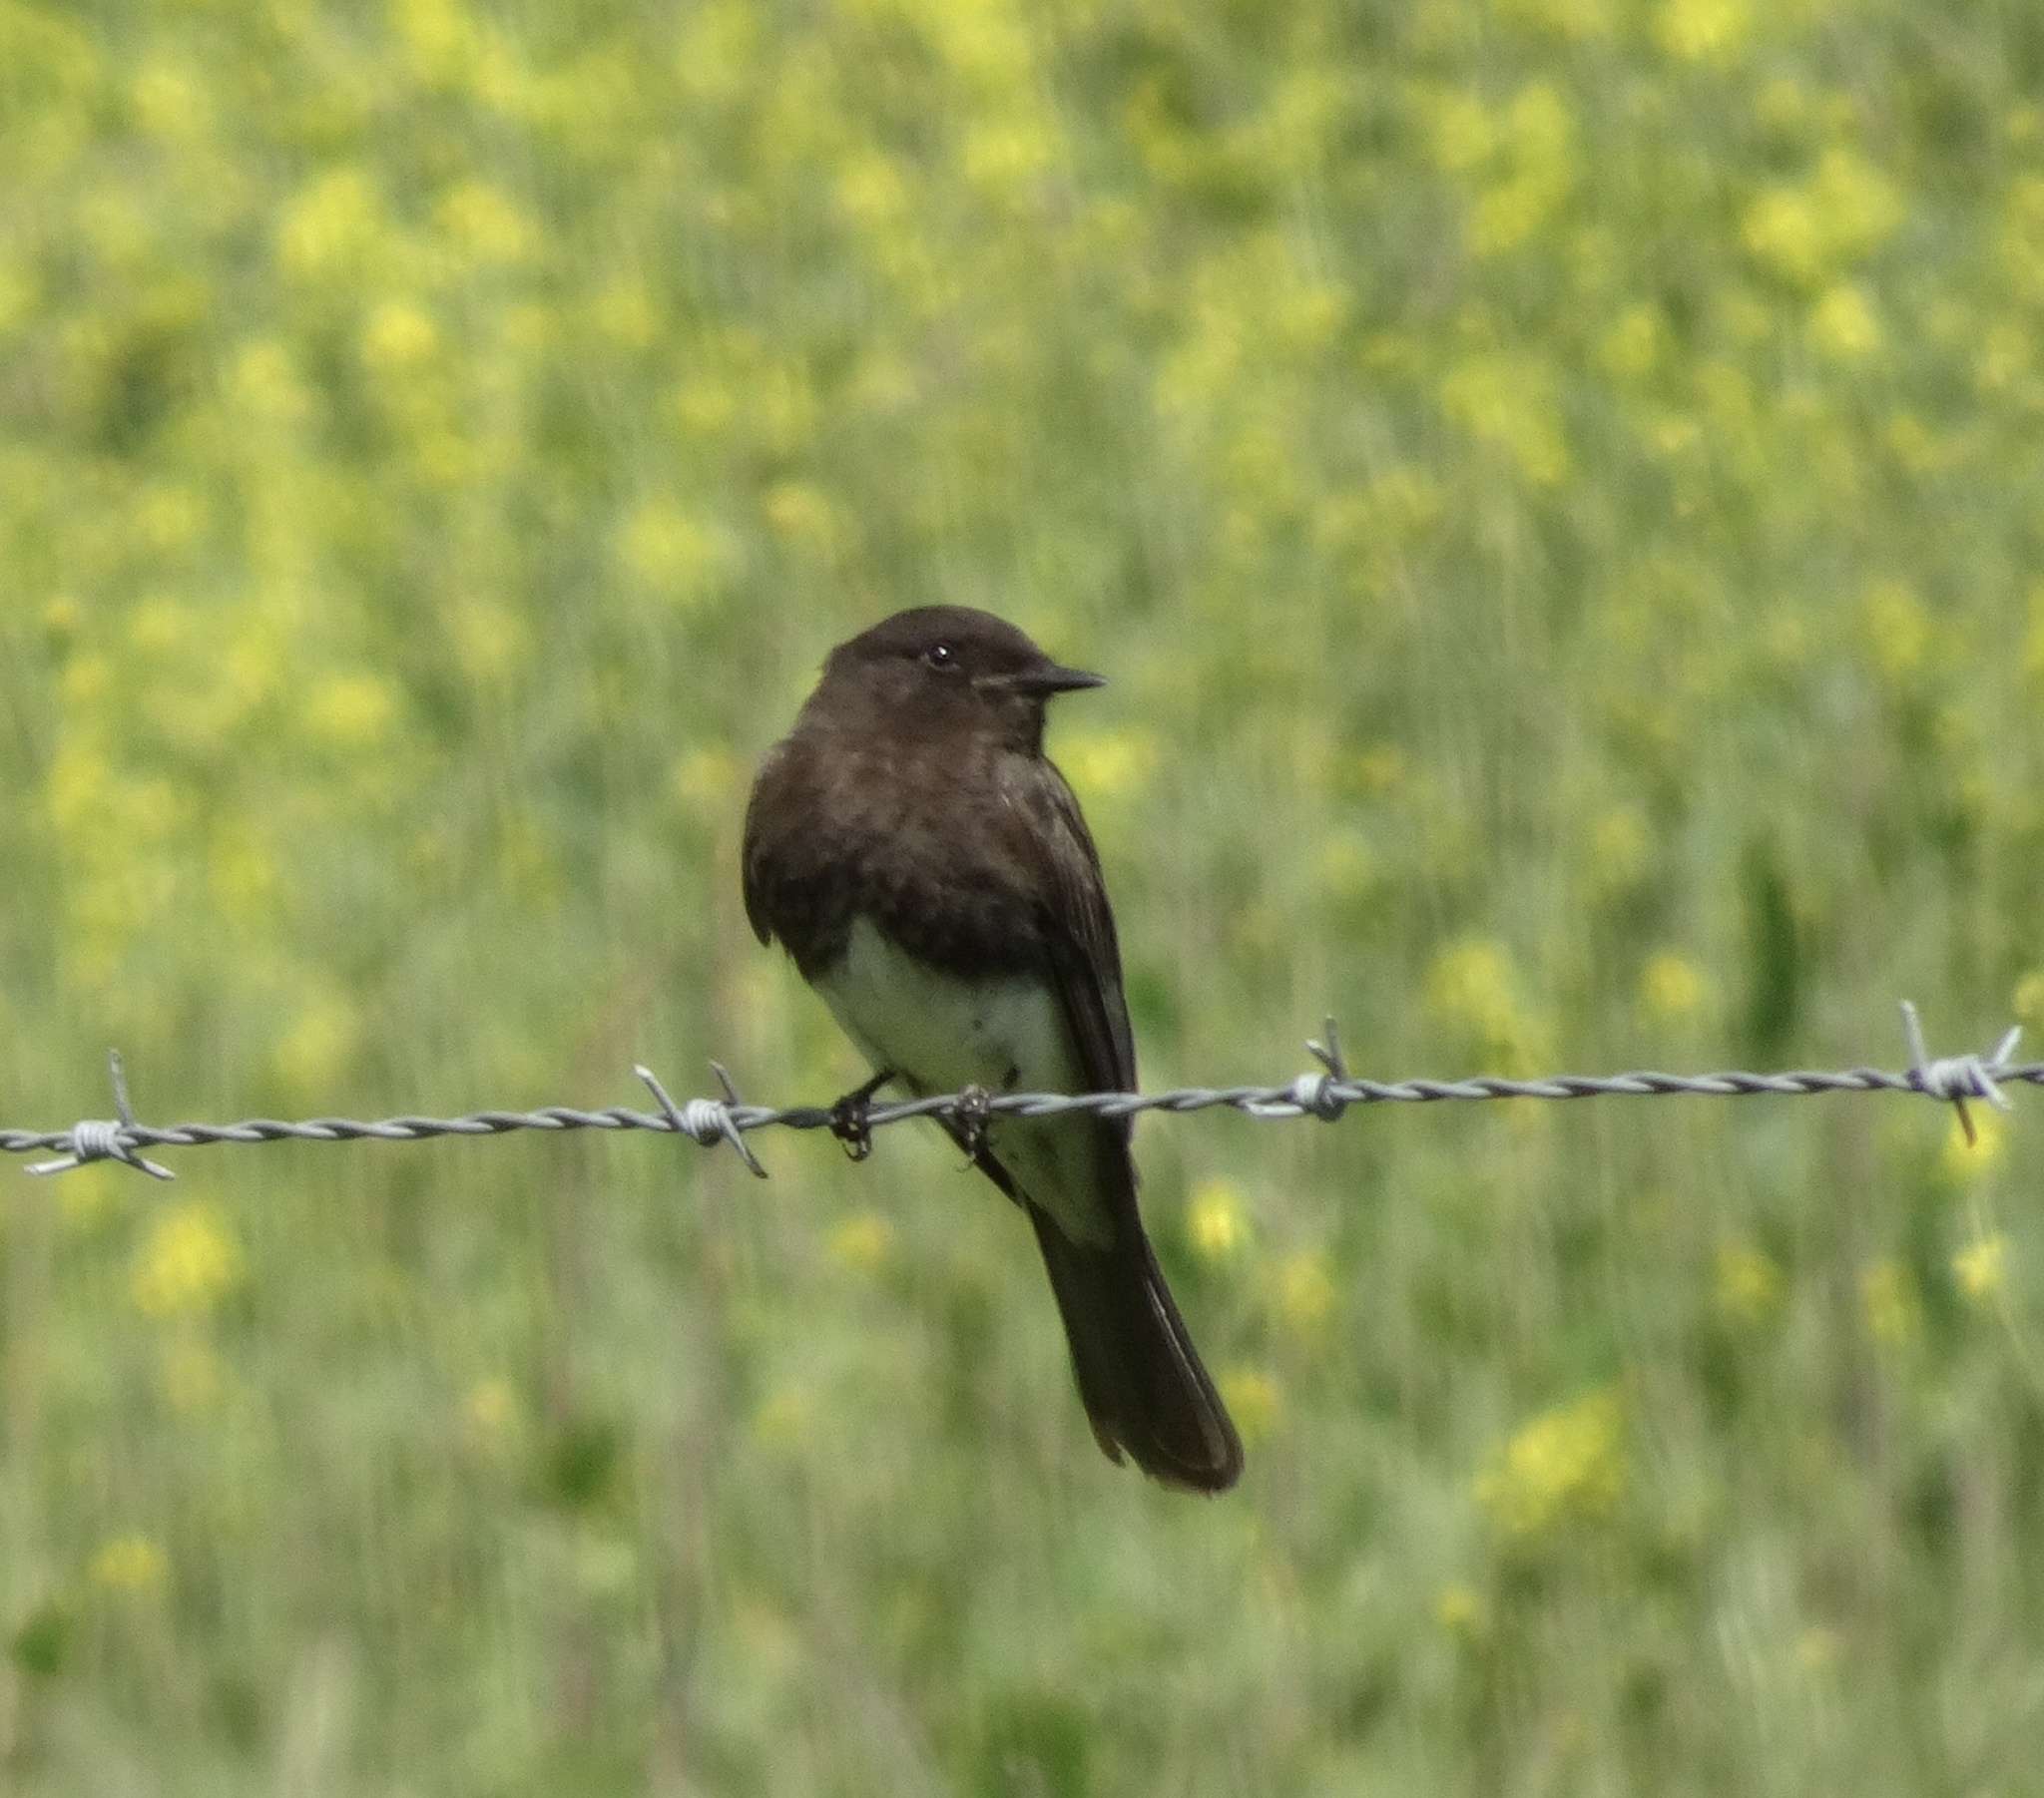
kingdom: Animalia
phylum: Chordata
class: Aves
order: Passeriformes
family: Tyrannidae
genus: Sayornis
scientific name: Sayornis nigricans
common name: Black phoebe
